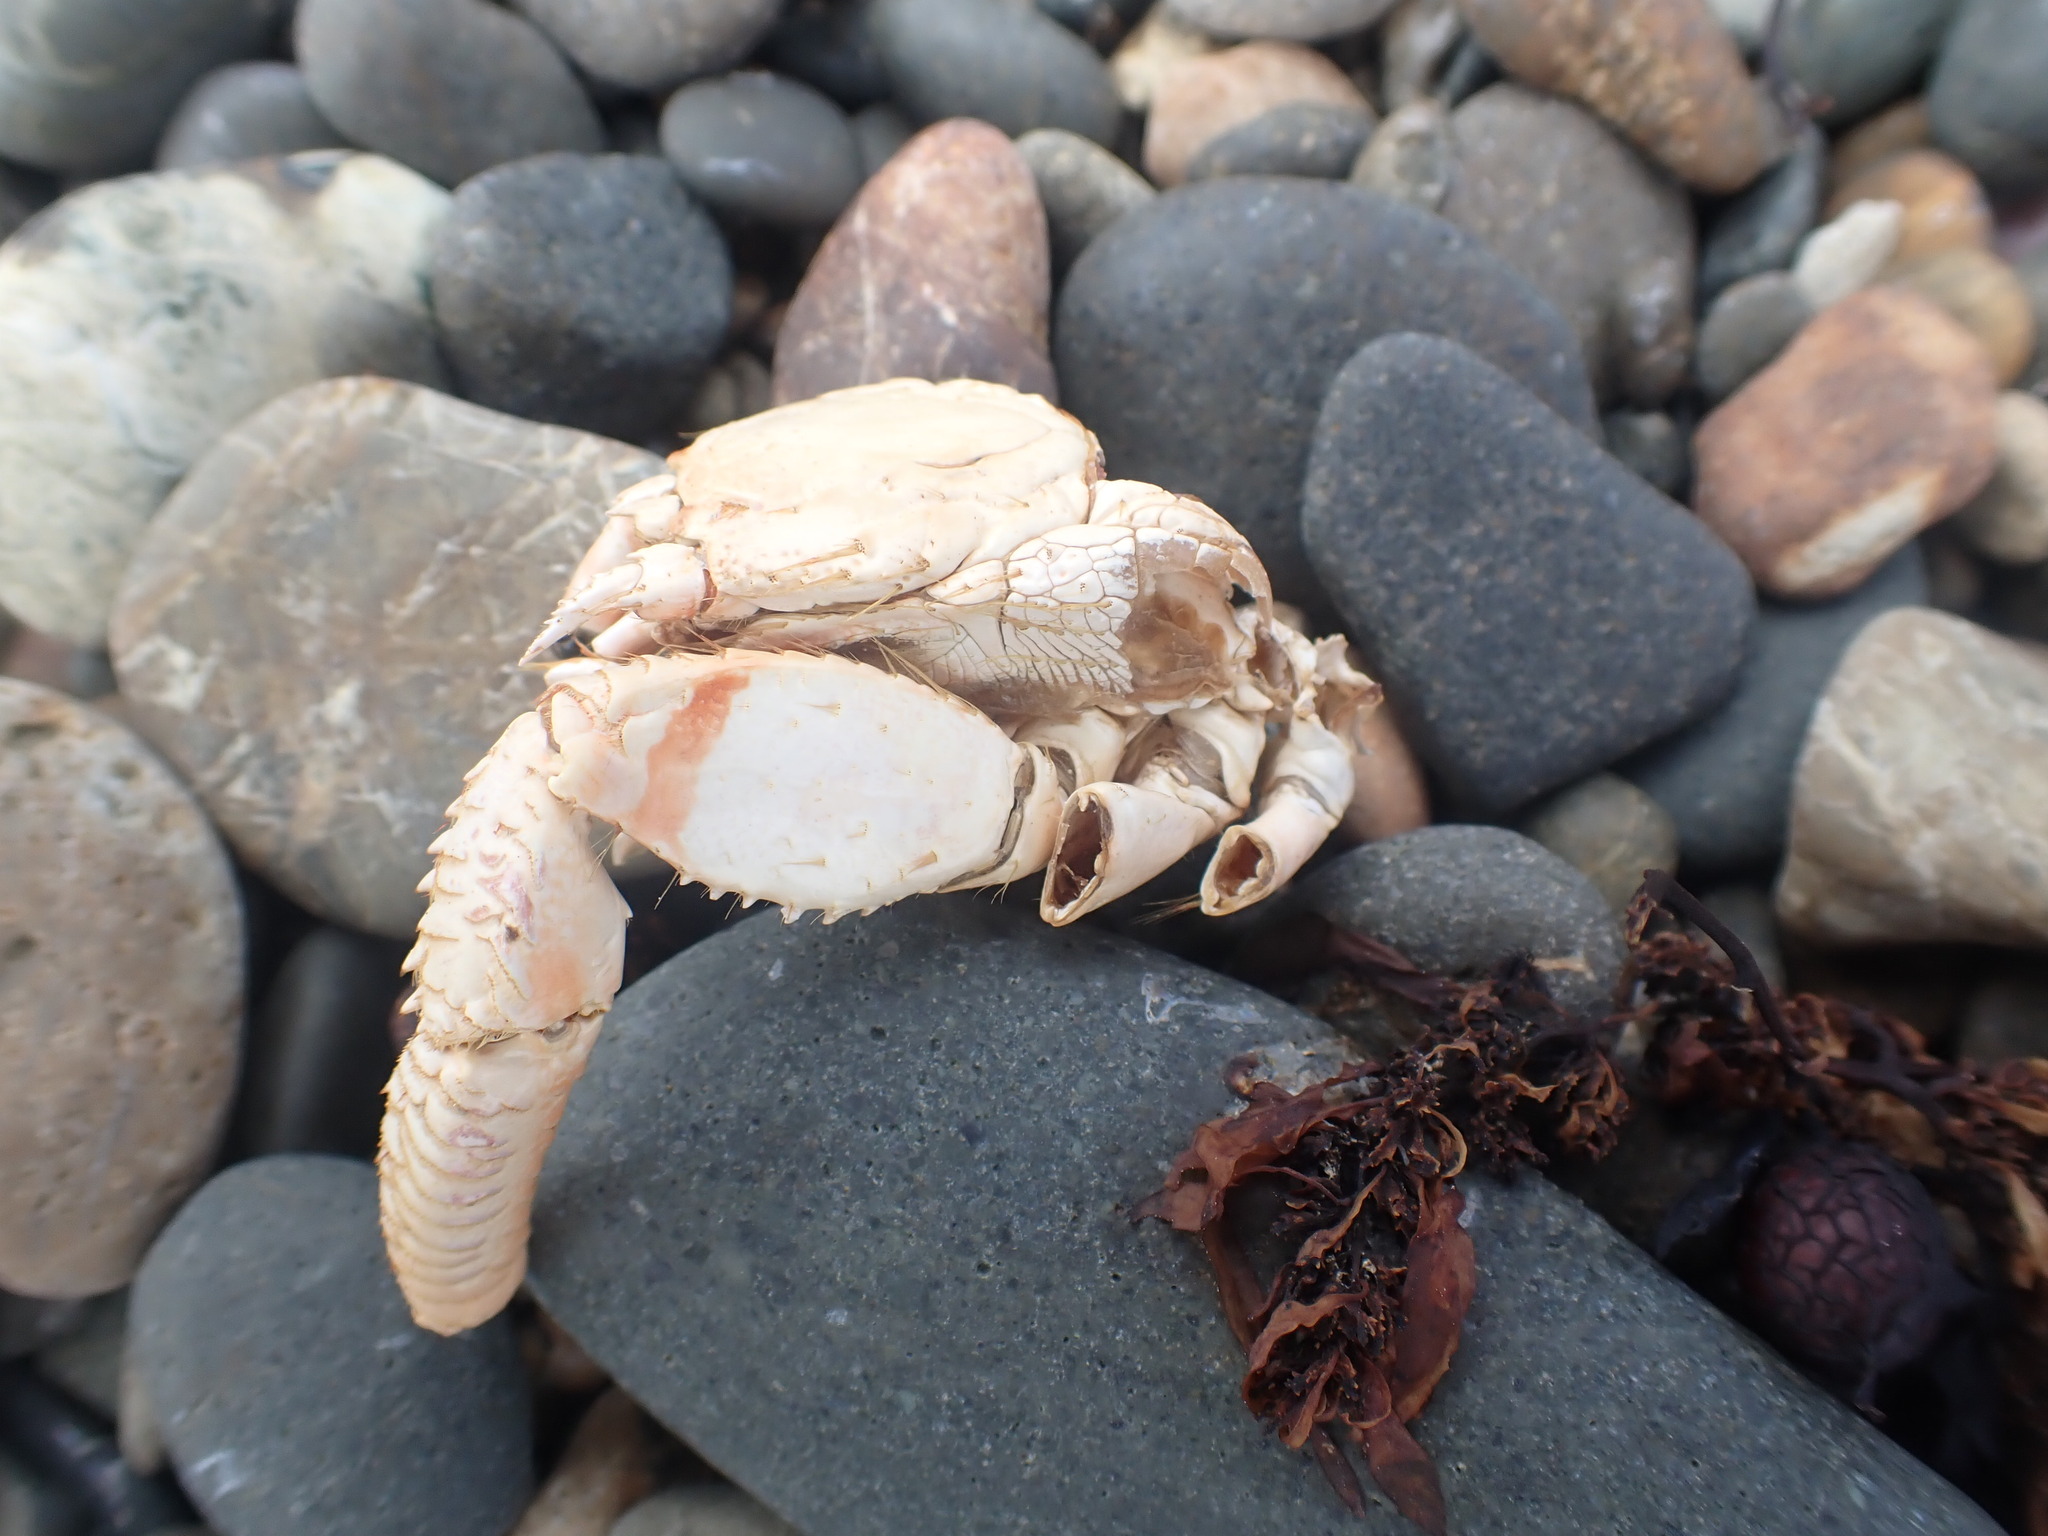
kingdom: Animalia
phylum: Arthropoda
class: Malacostraca
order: Decapoda
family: Diogenidae
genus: Dardanus
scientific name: Dardanus arrosor
